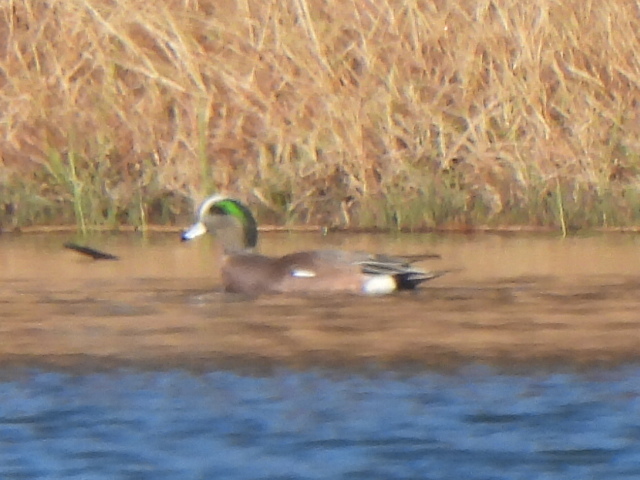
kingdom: Animalia
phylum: Chordata
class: Aves
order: Anseriformes
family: Anatidae
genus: Mareca
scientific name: Mareca americana
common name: American wigeon
